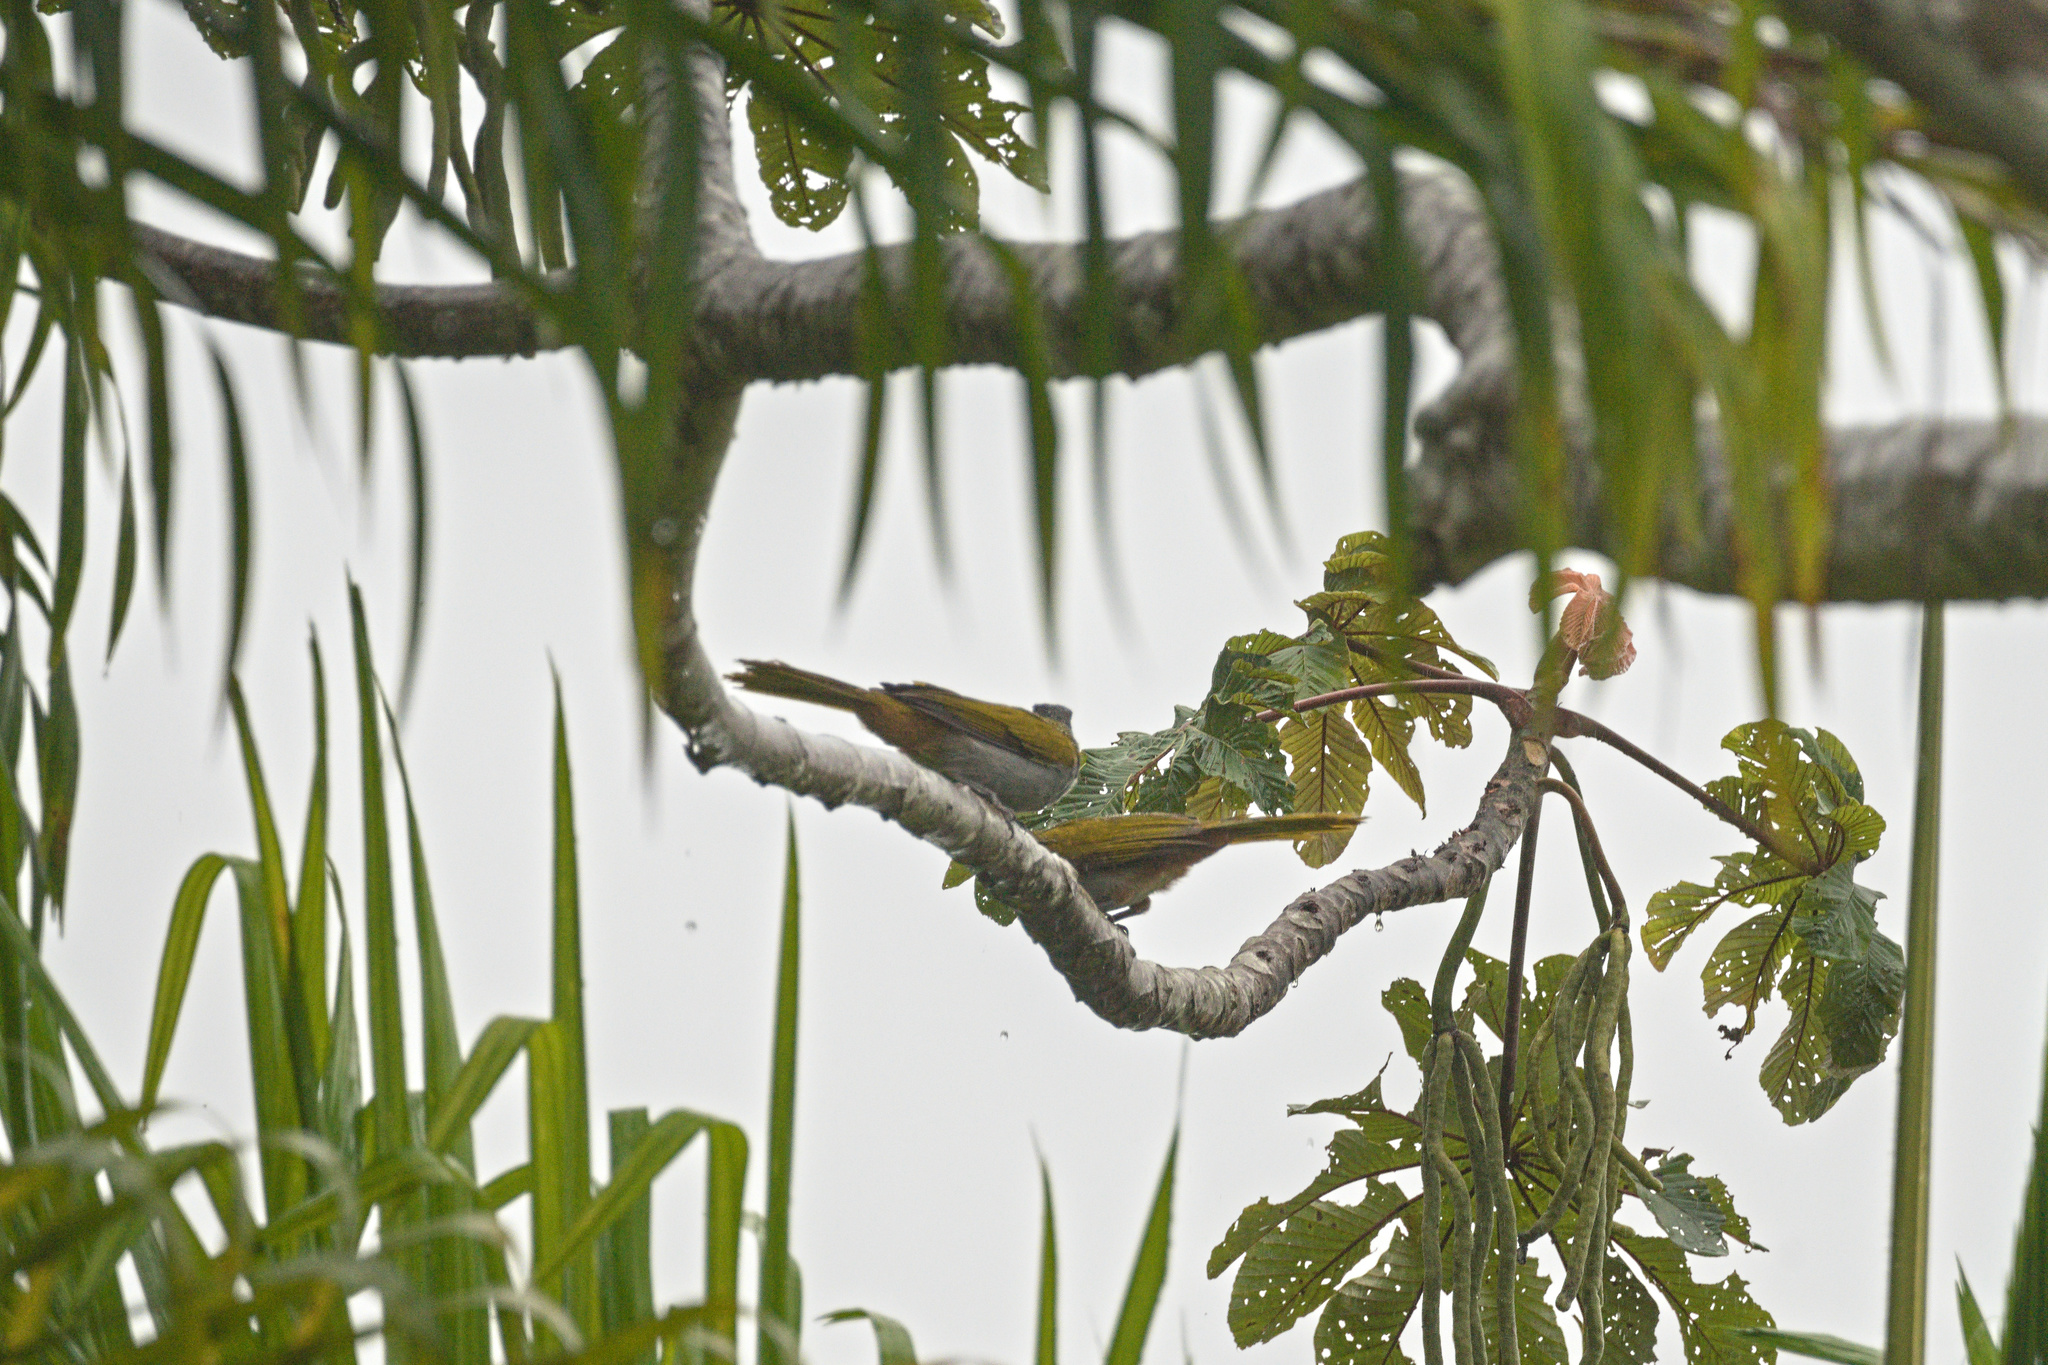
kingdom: Animalia
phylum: Chordata
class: Aves
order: Passeriformes
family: Thraupidae
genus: Saltator
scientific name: Saltator atriceps
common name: Black-headed saltator
